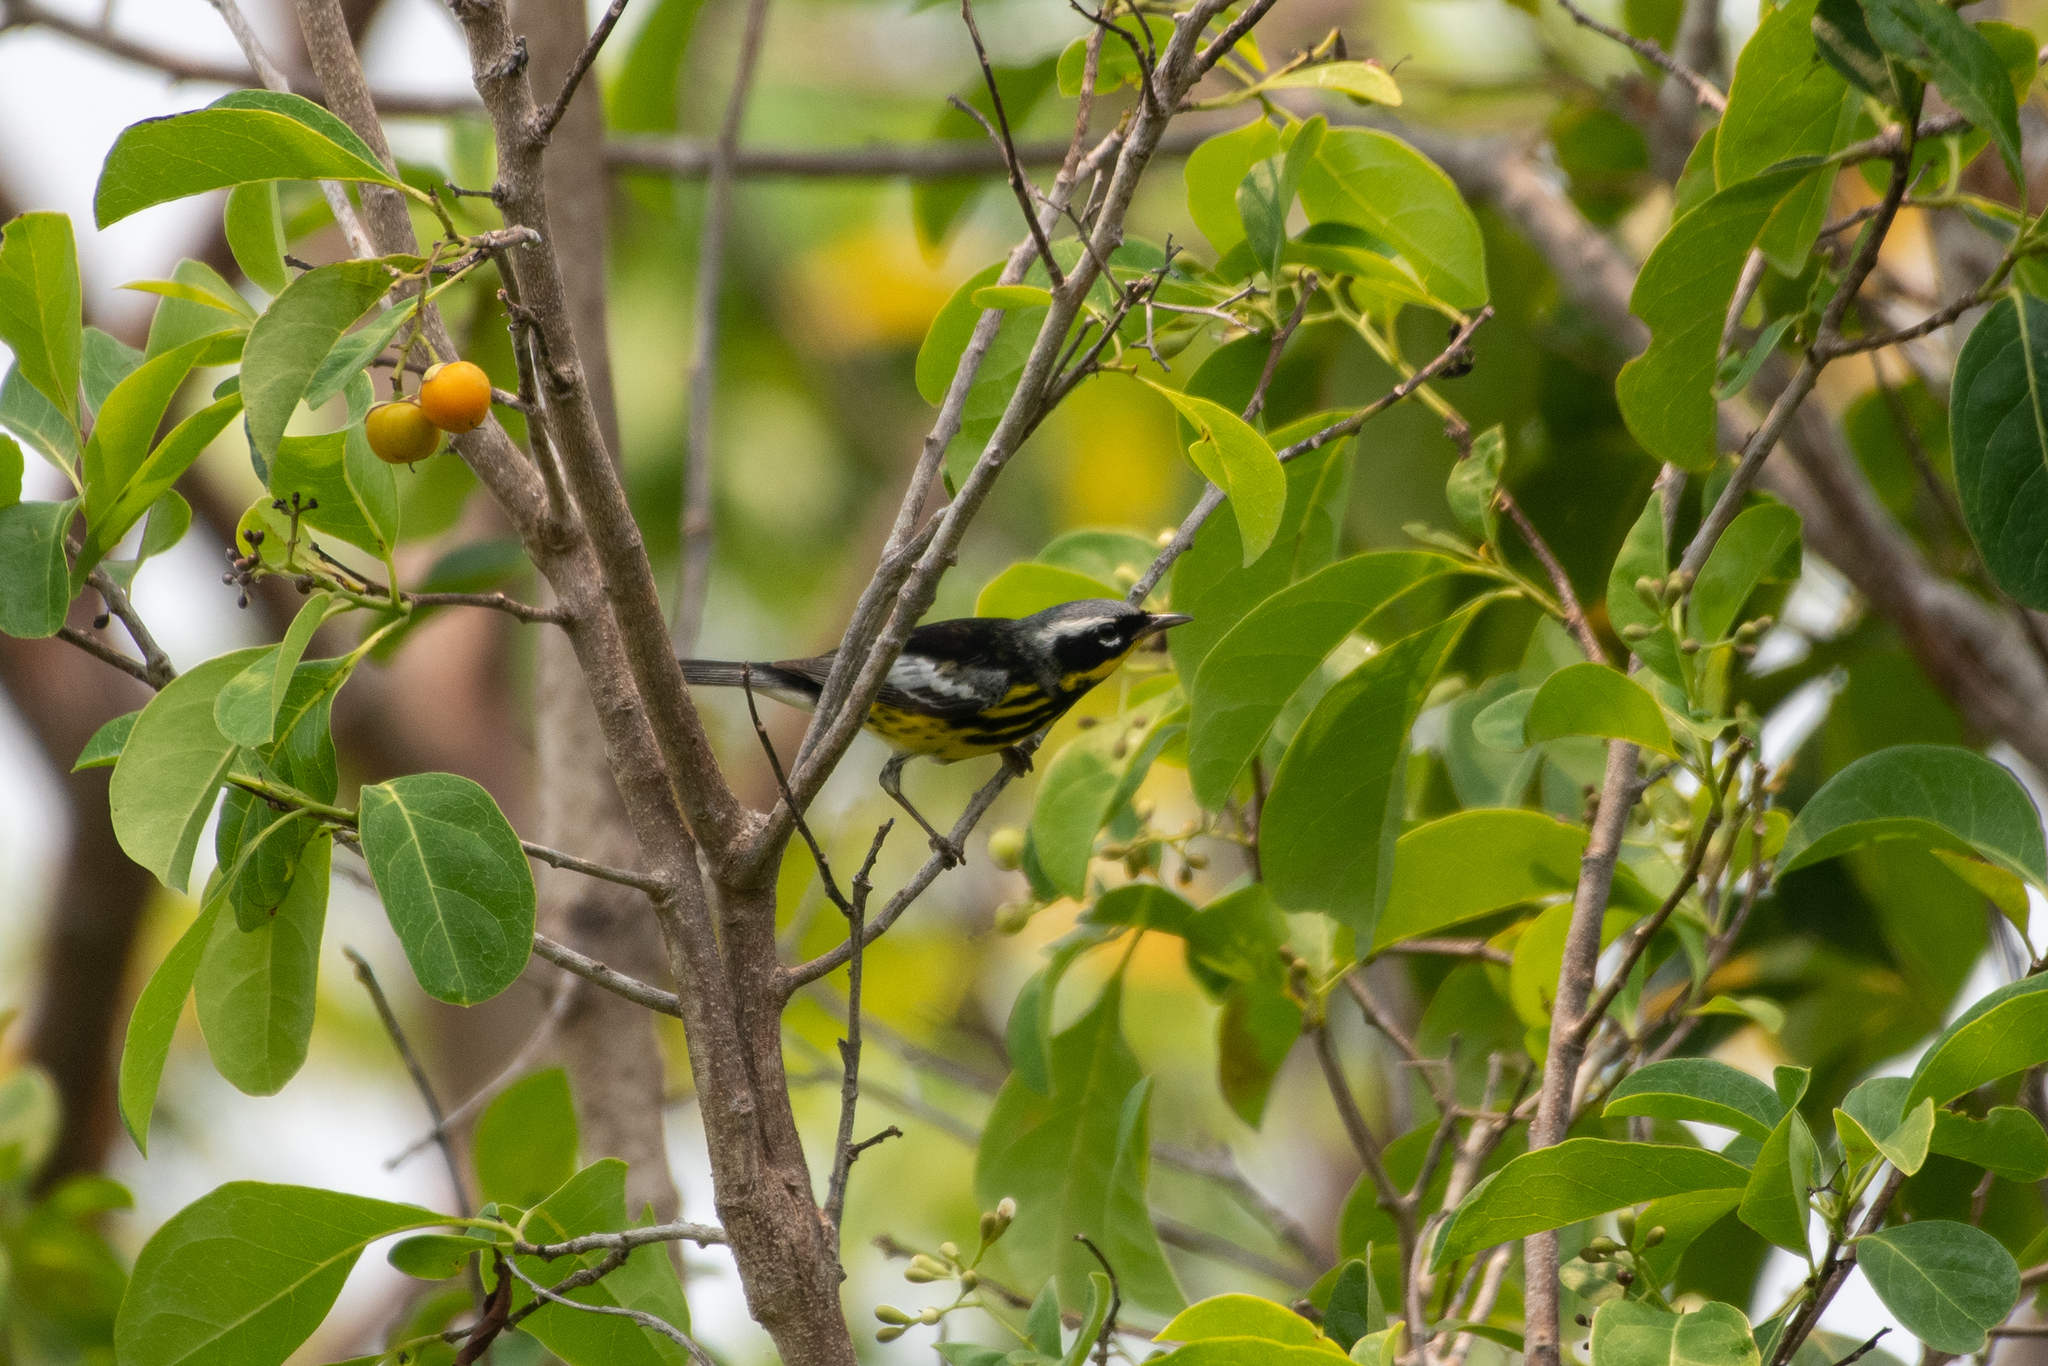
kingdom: Animalia
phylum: Chordata
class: Aves
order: Passeriformes
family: Parulidae
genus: Setophaga
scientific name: Setophaga magnolia
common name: Magnolia warbler
